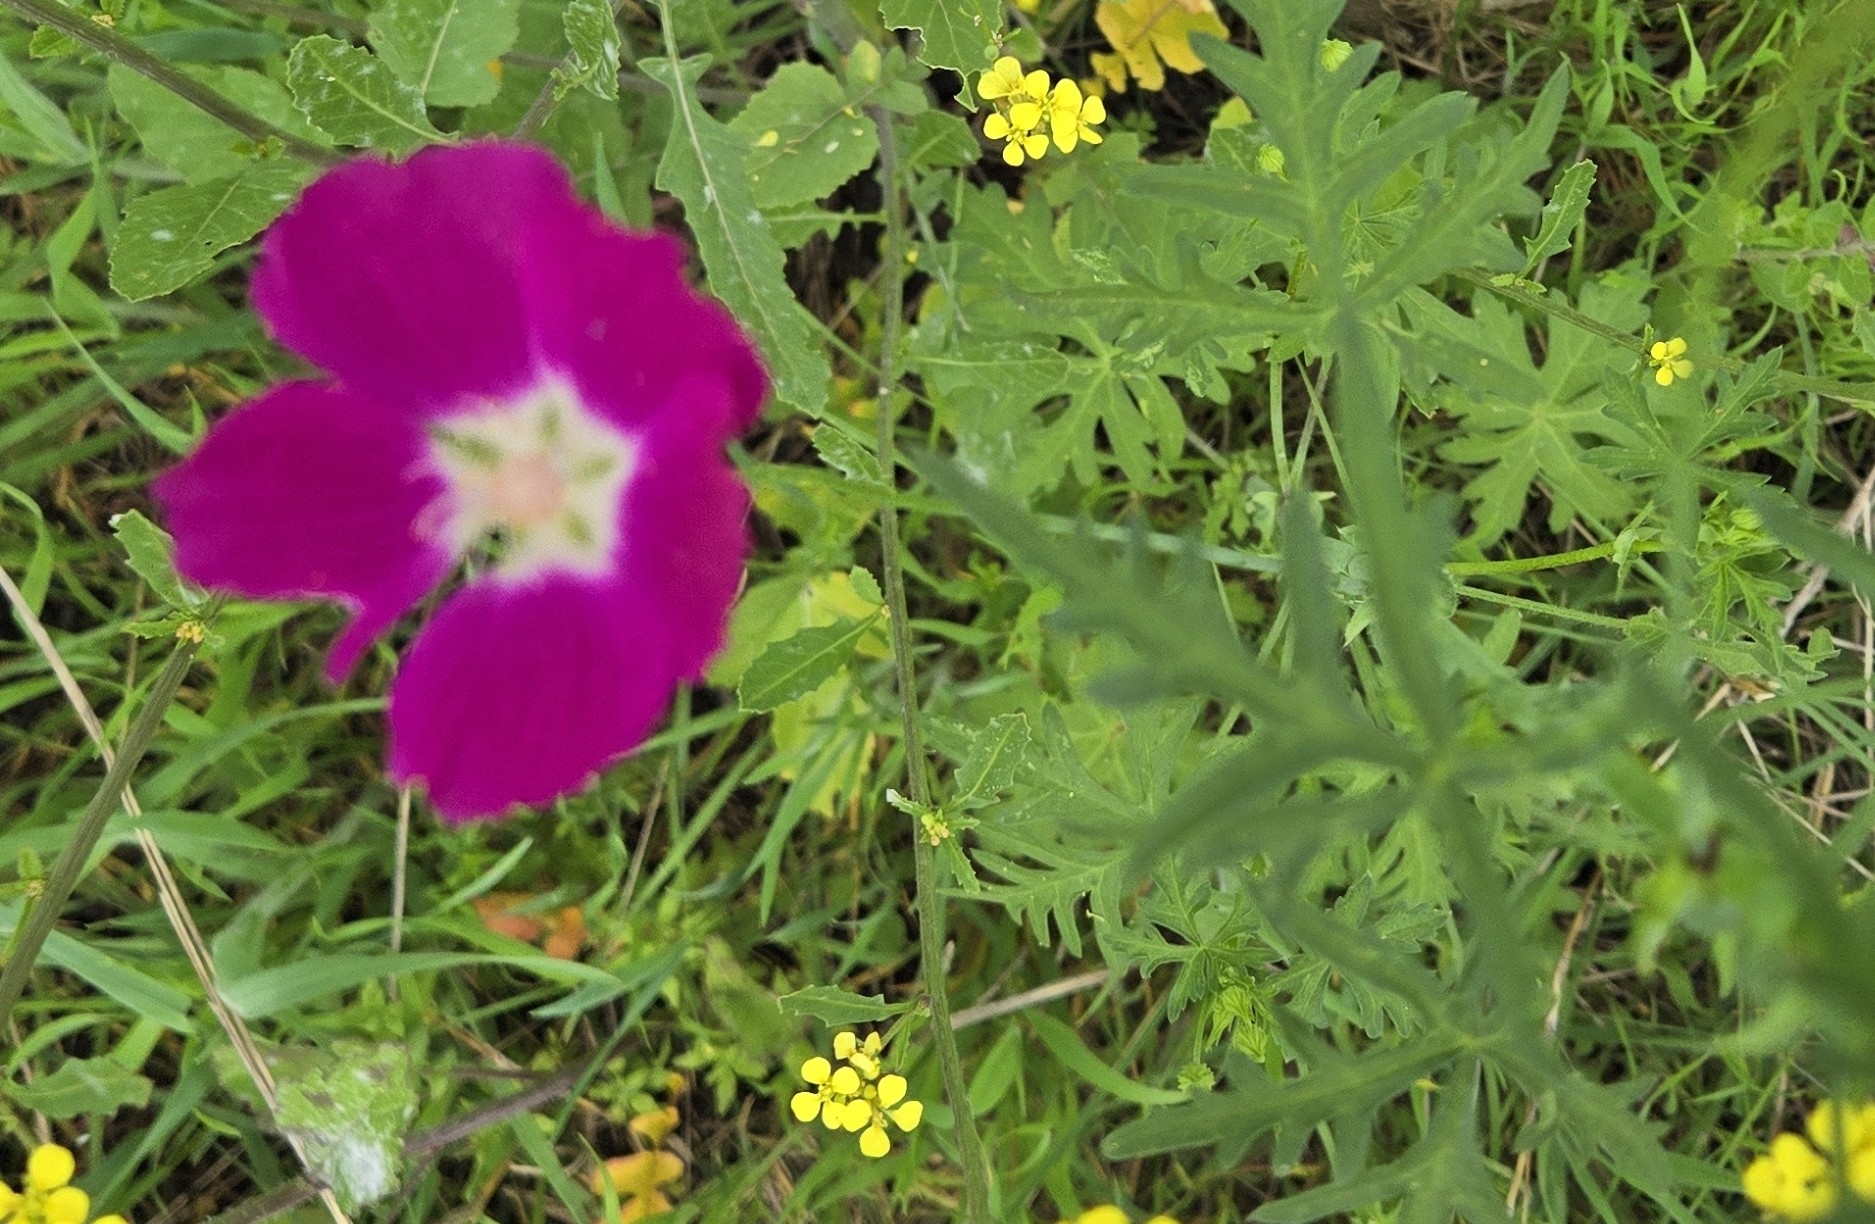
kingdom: Plantae
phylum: Tracheophyta
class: Magnoliopsida
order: Malvales
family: Malvaceae
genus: Callirhoe
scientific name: Callirhoe leiocarpa
